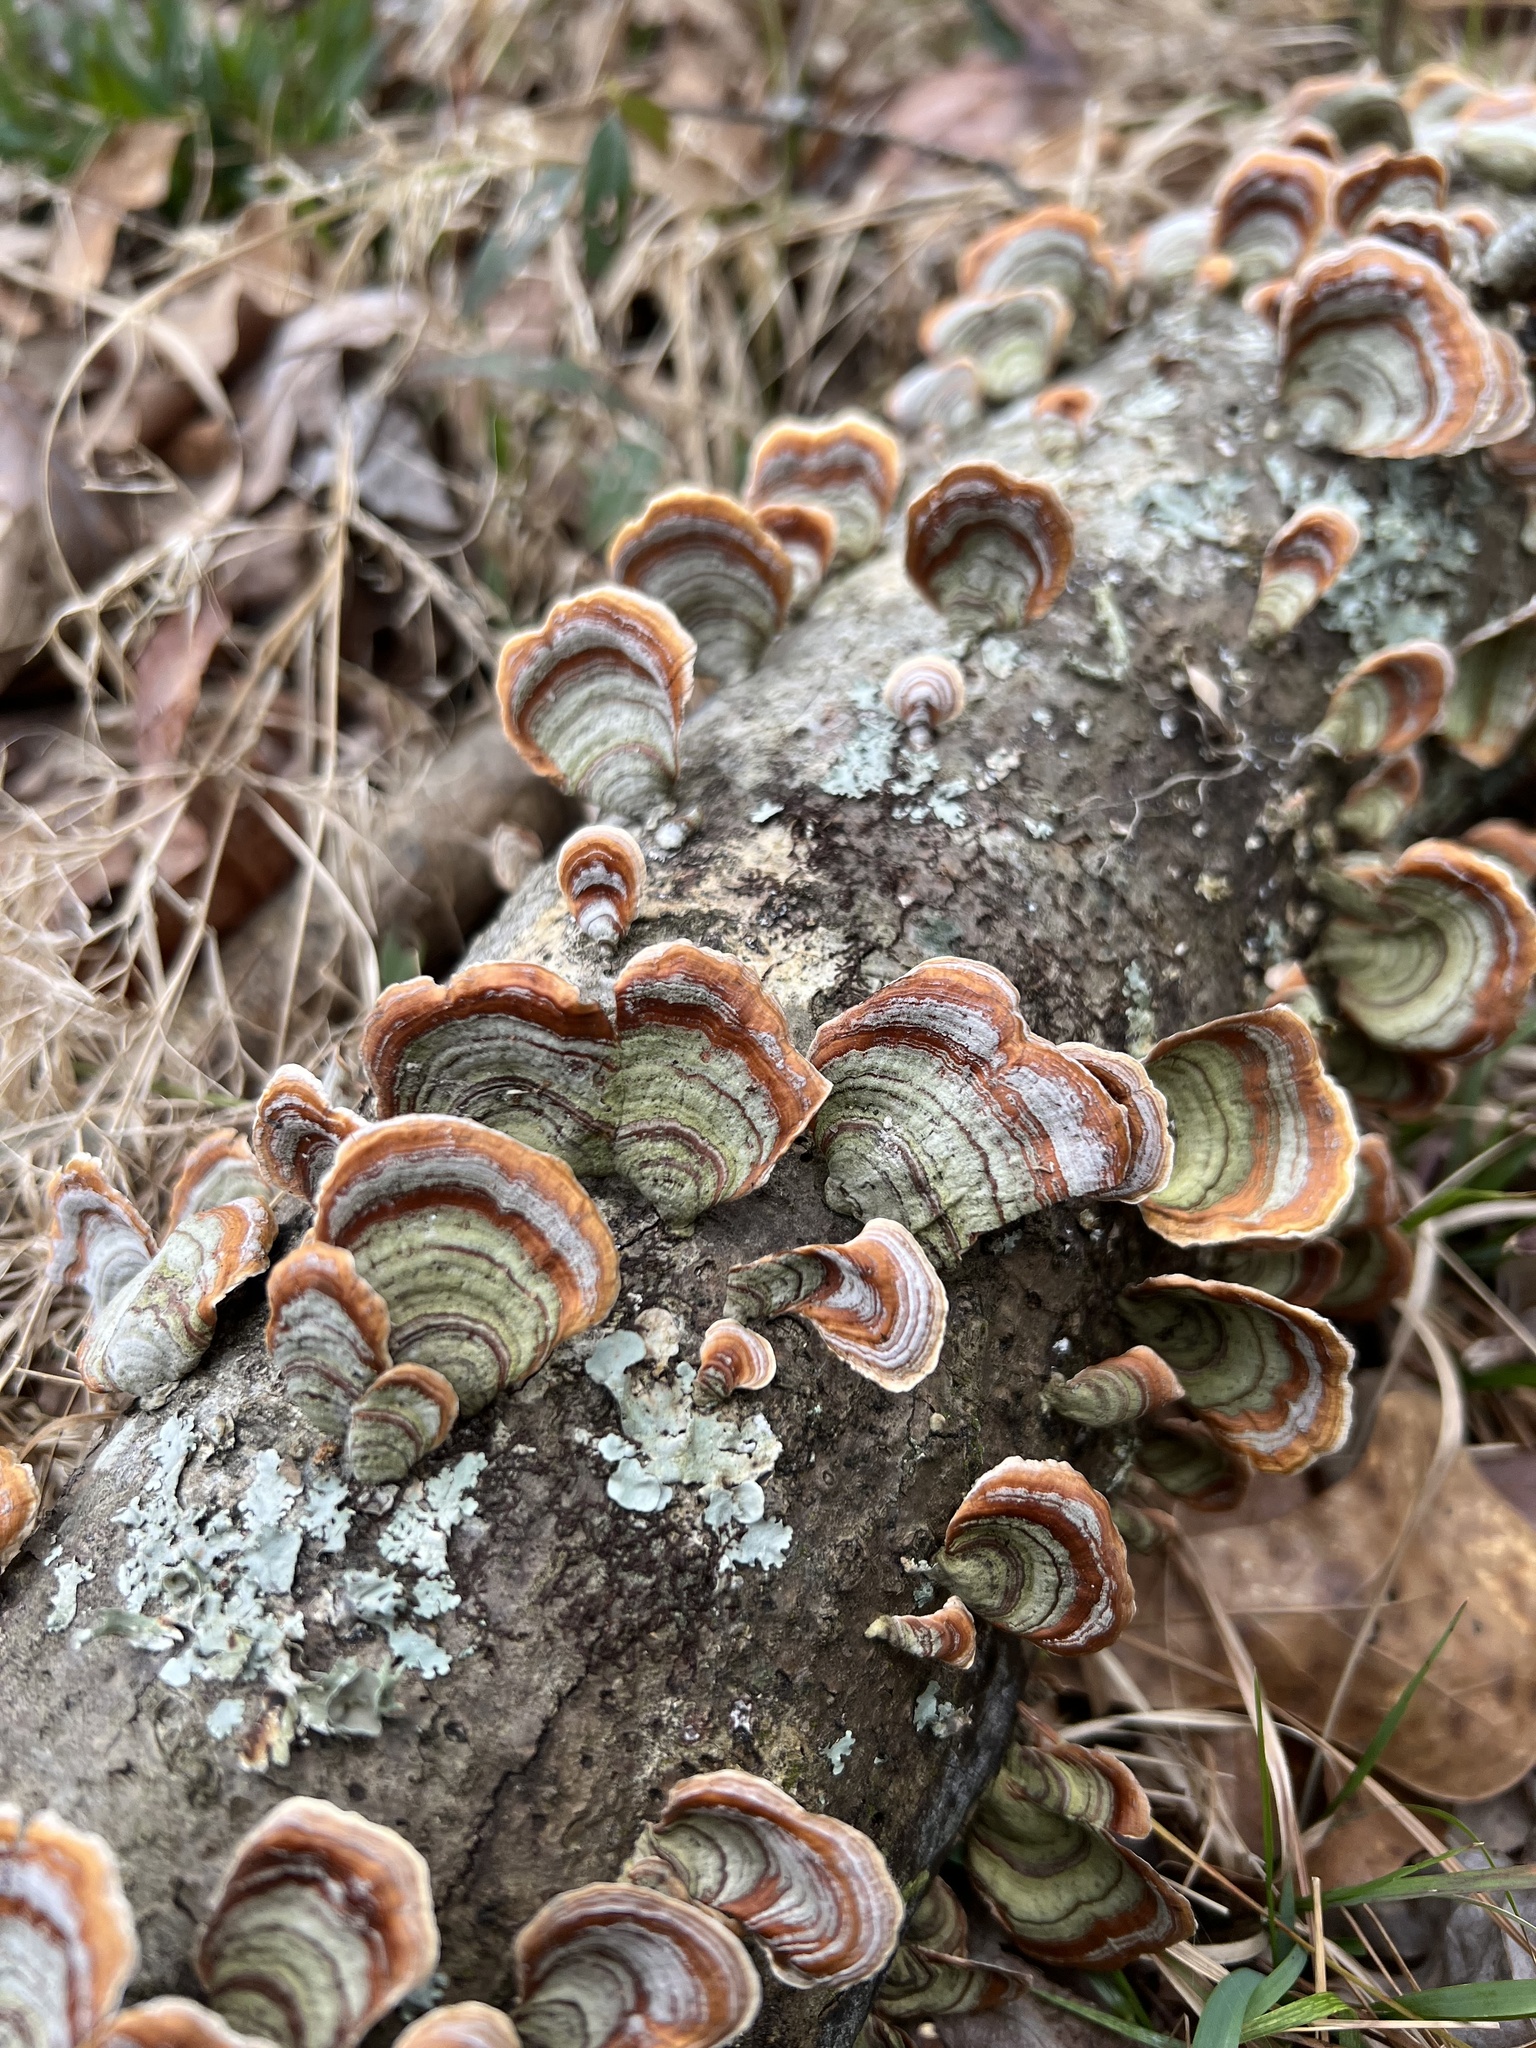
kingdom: Fungi
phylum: Basidiomycota
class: Agaricomycetes
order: Russulales
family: Stereaceae
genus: Stereum
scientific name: Stereum lobatum
